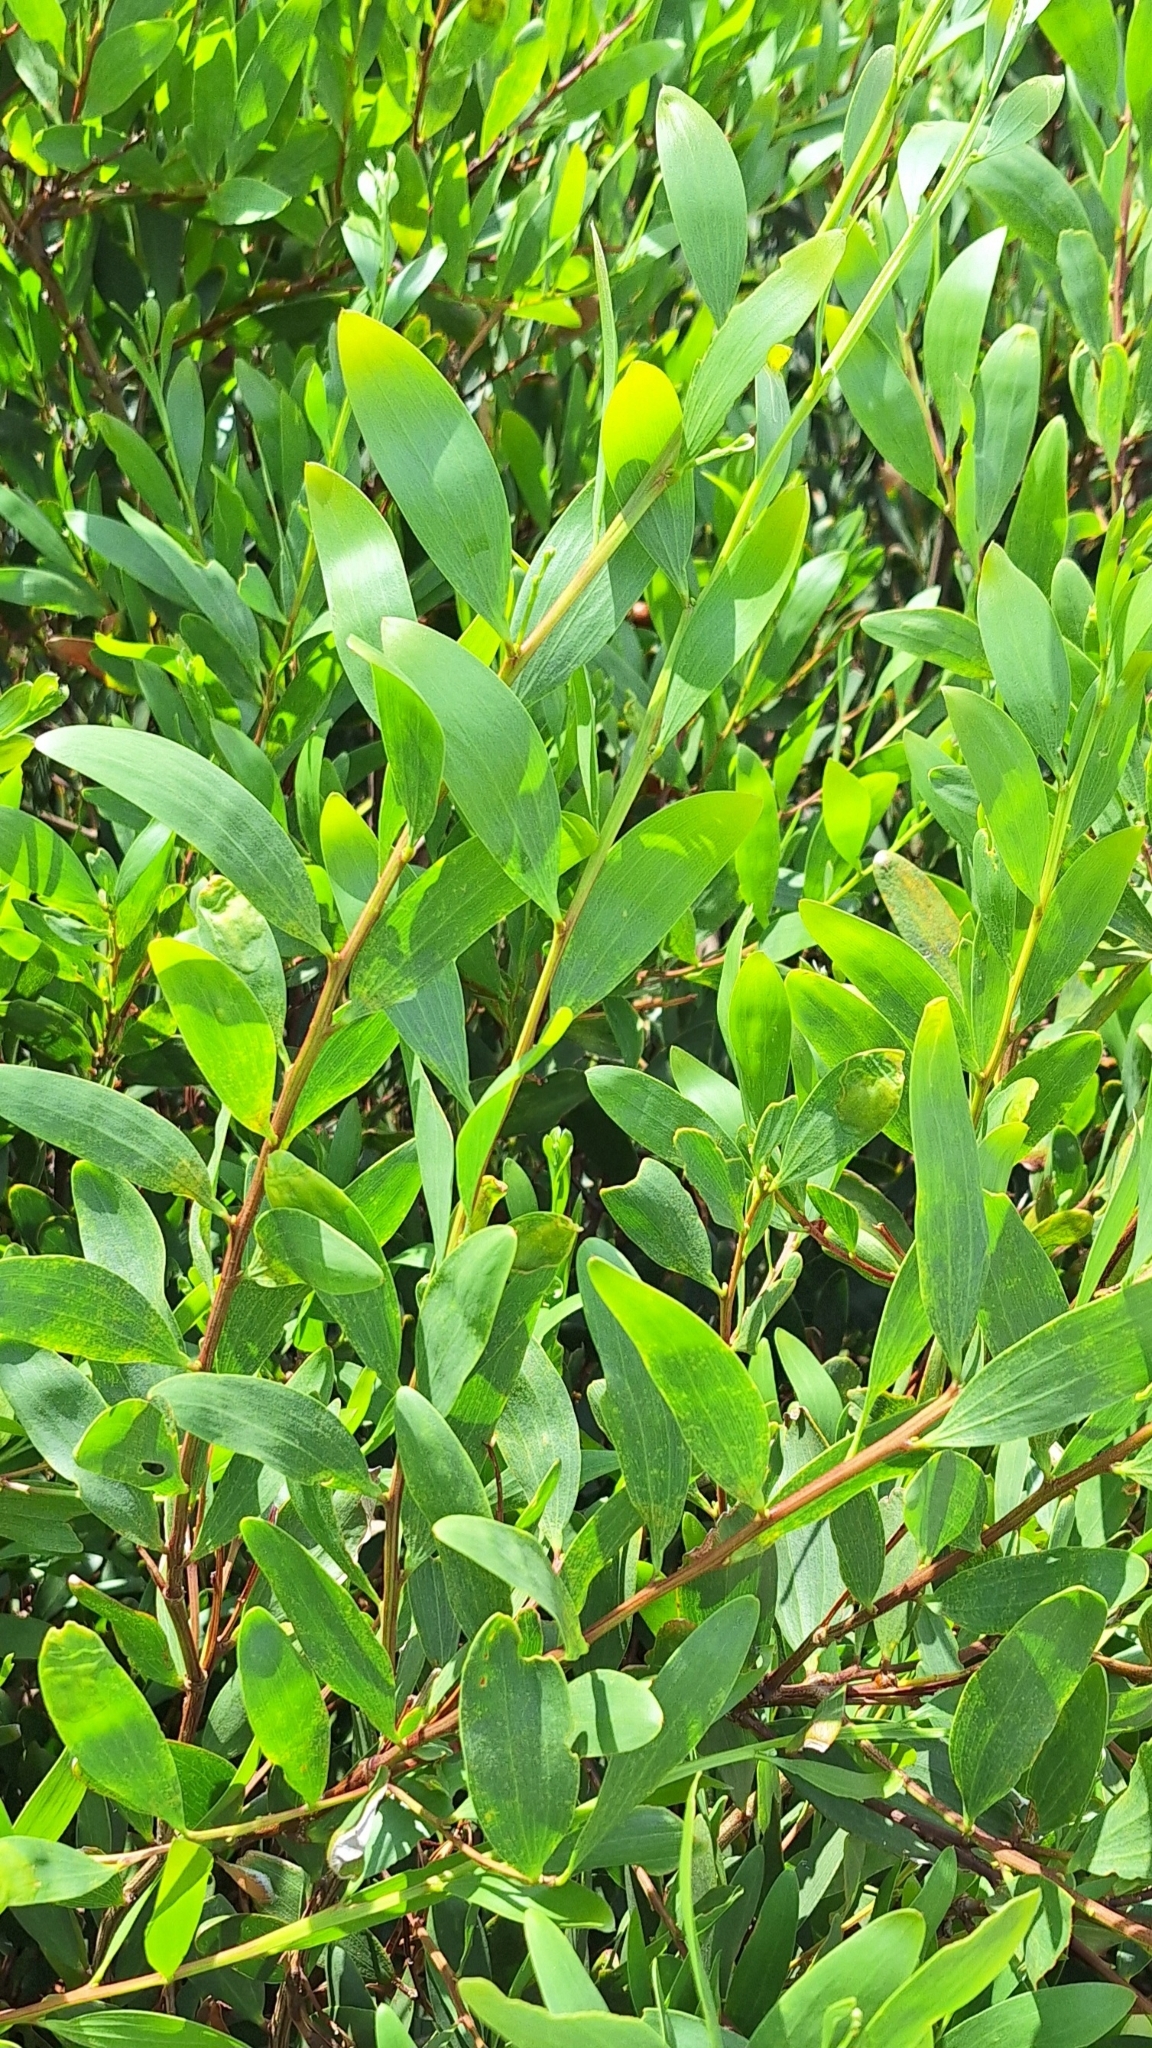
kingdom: Plantae
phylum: Tracheophyta
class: Magnoliopsida
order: Fabales
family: Fabaceae
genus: Acacia
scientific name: Acacia longifolia
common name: Sydney golden wattle
